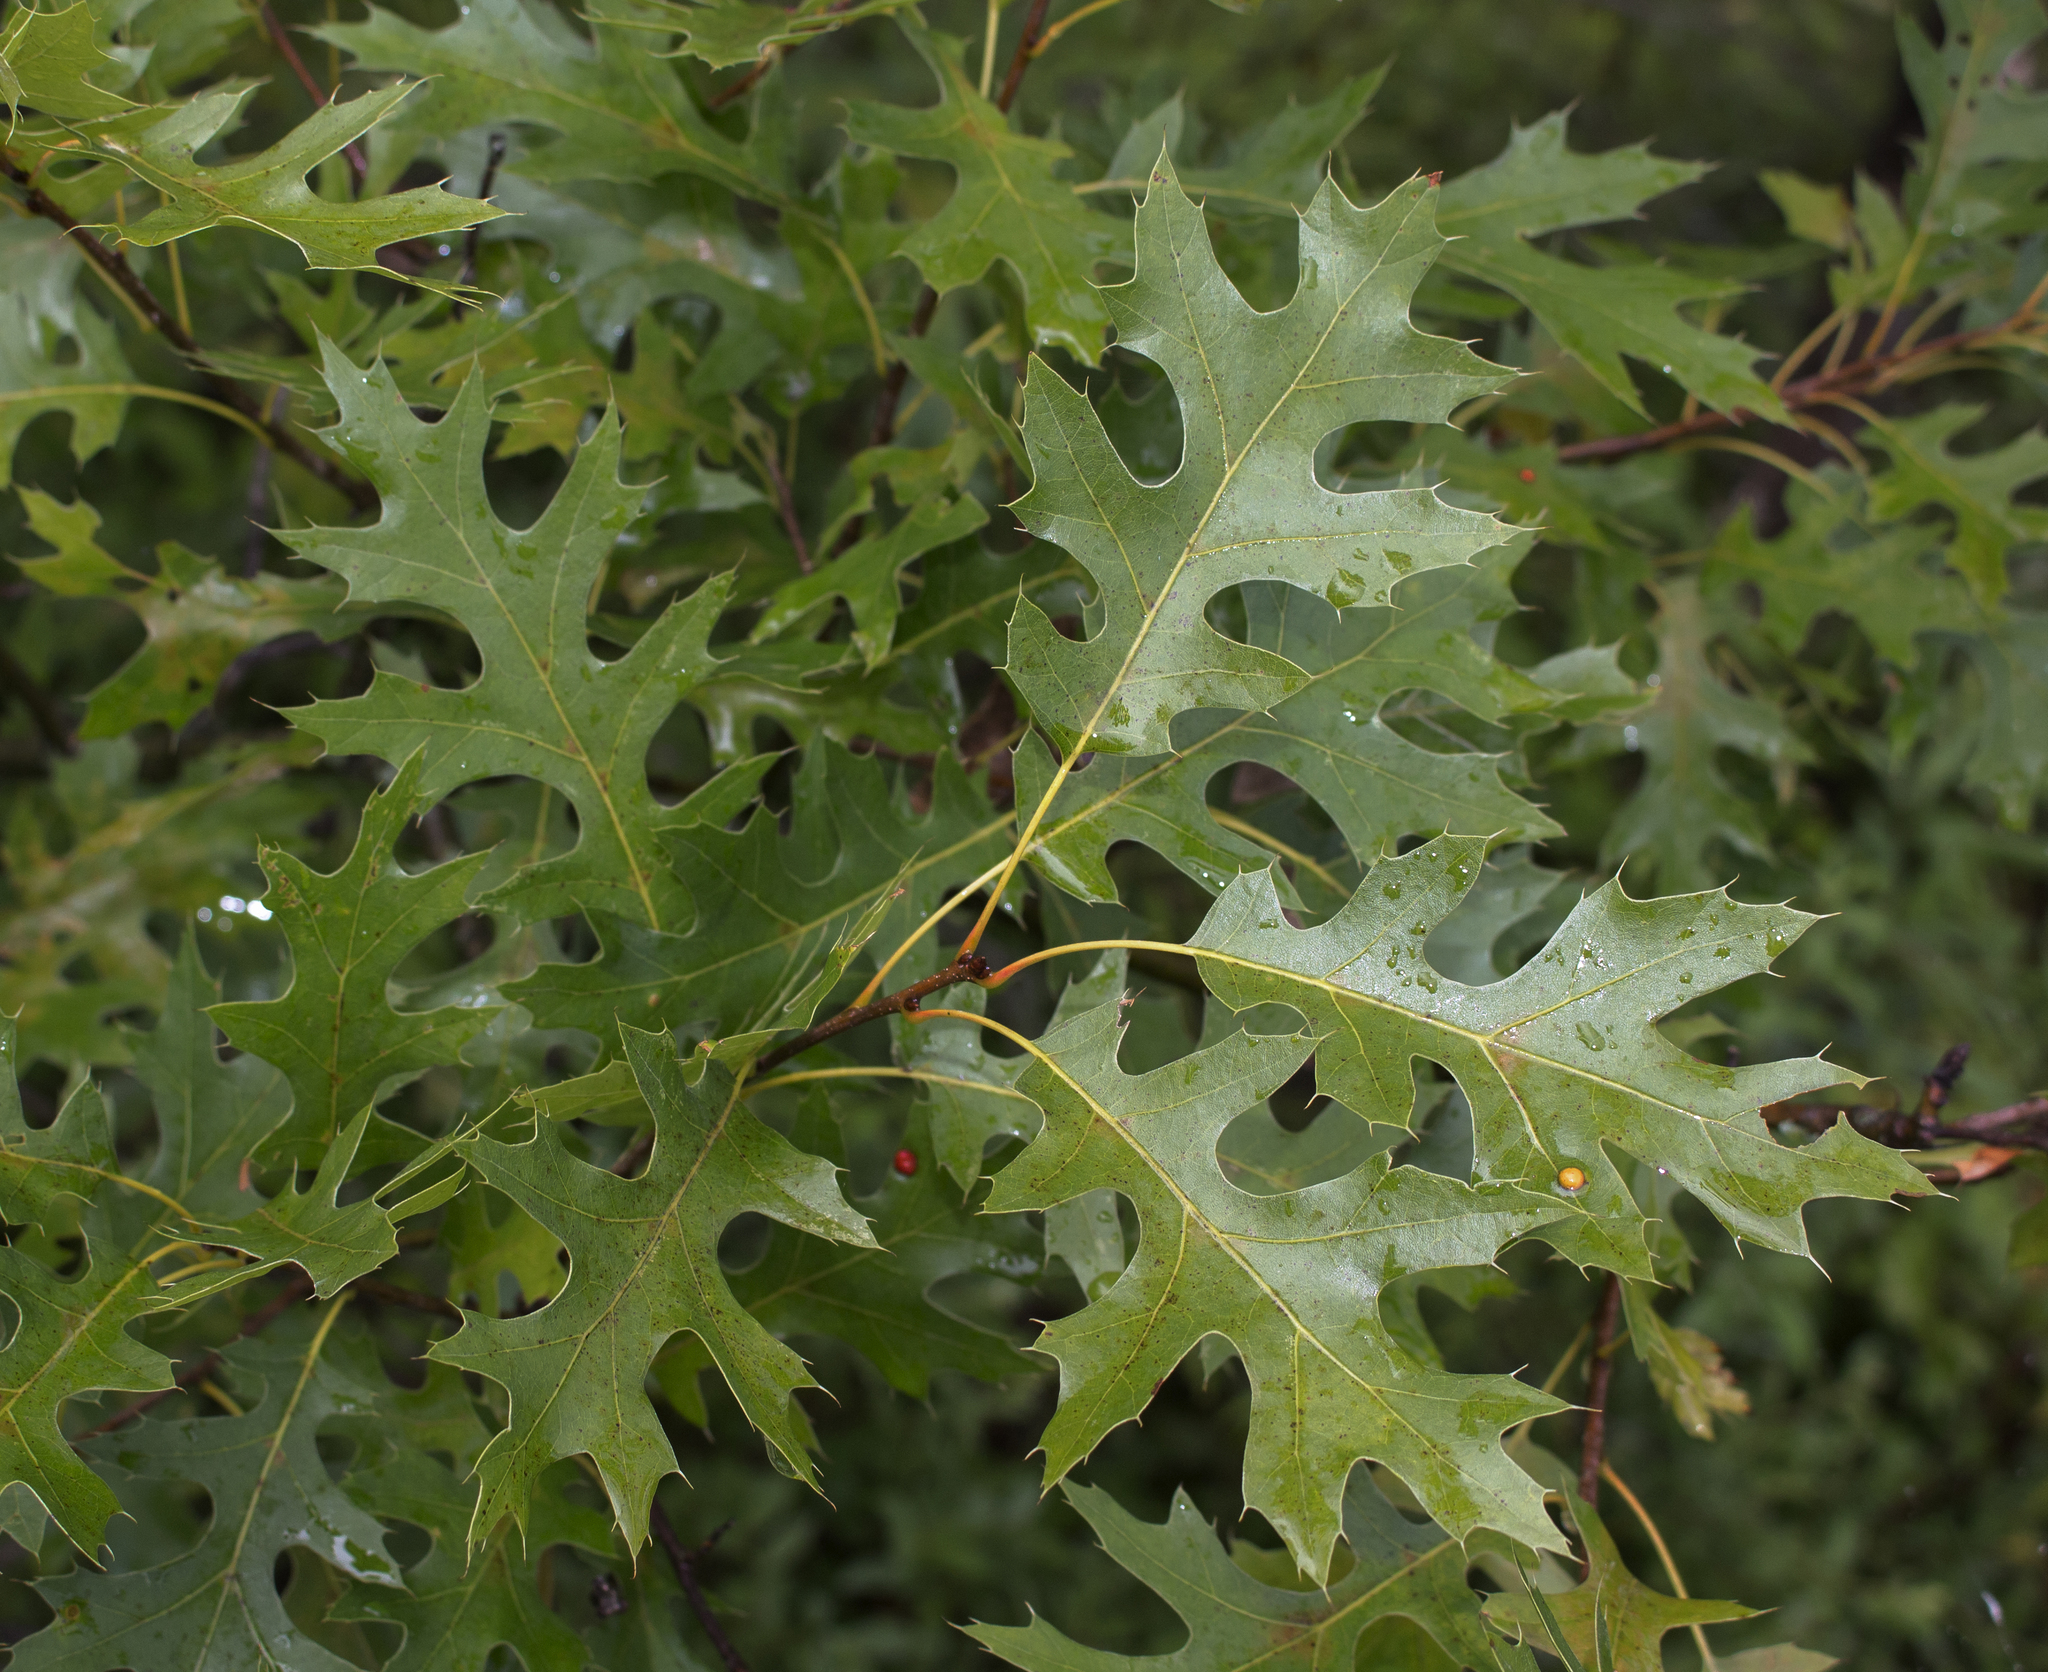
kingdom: Plantae
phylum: Tracheophyta
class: Magnoliopsida
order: Fagales
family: Fagaceae
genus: Quercus
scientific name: Quercus ellipsoidalis
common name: Hill's oak
